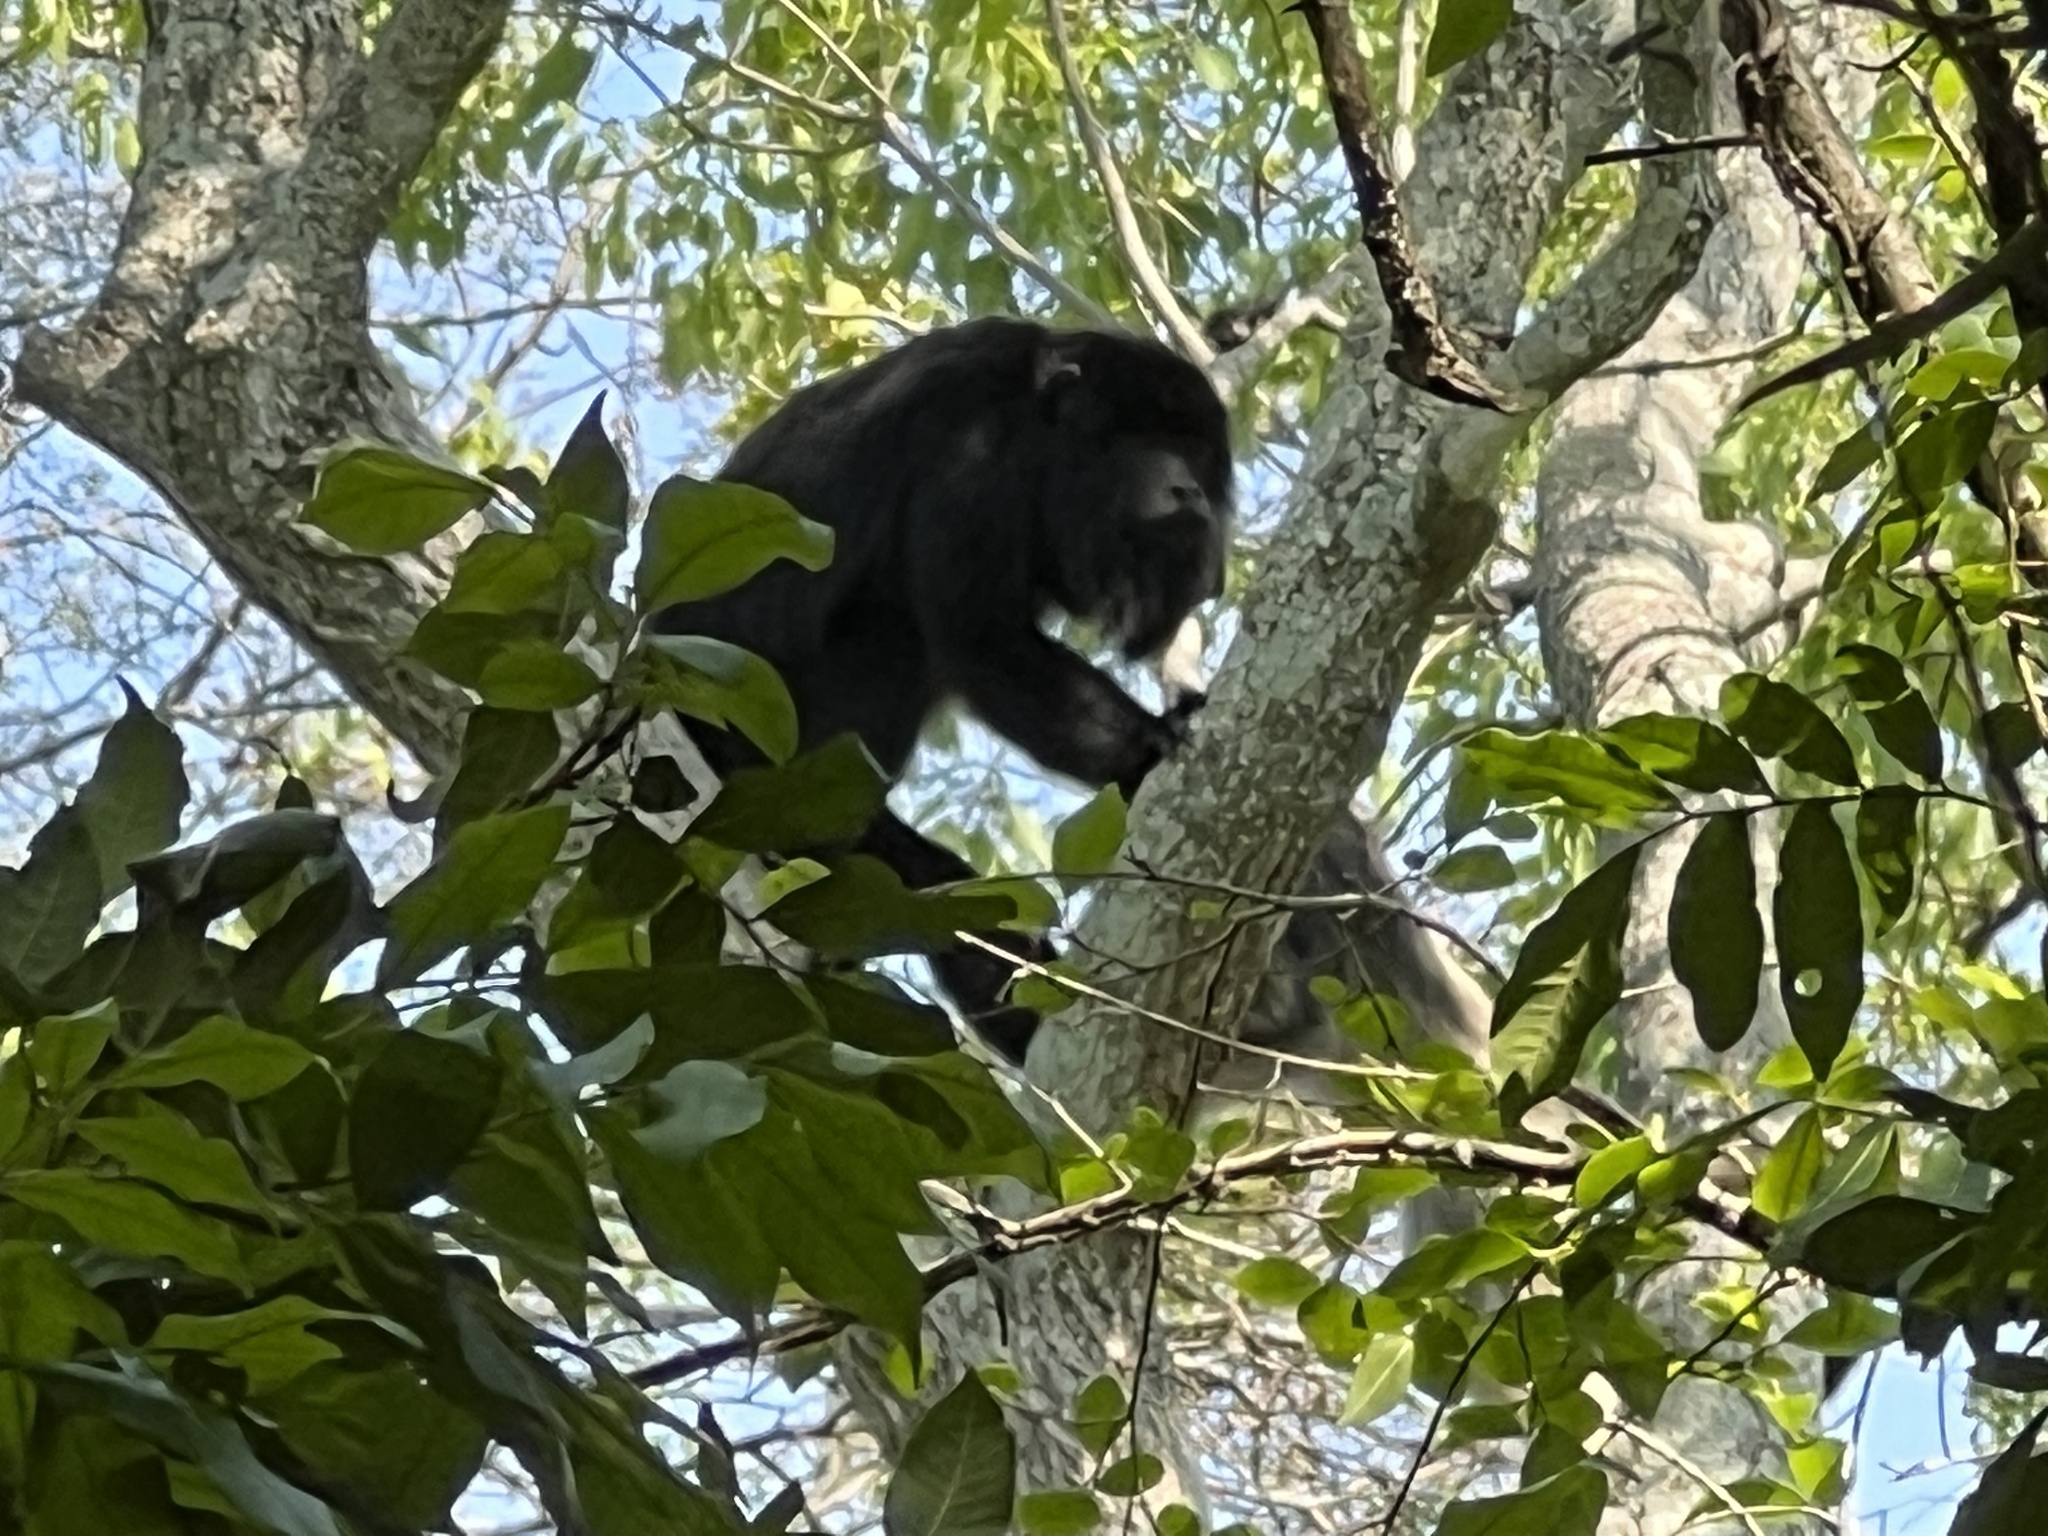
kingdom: Animalia
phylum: Chordata
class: Mammalia
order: Primates
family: Atelidae
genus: Alouatta
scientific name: Alouatta caraya
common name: Black howler
